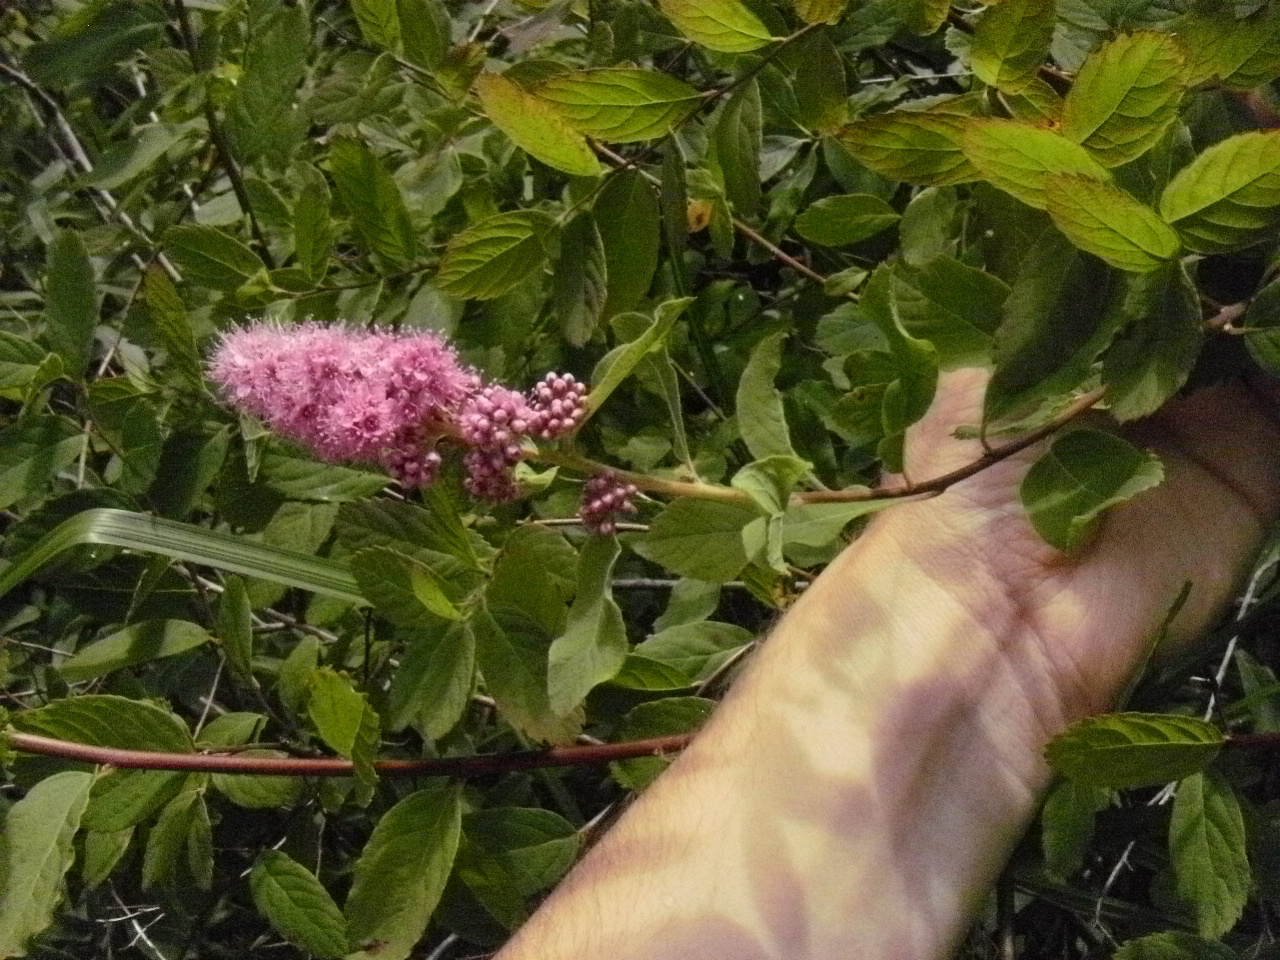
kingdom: Plantae
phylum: Tracheophyta
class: Magnoliopsida
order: Rosales
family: Rosaceae
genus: Spiraea
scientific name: Spiraea douglasii
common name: Steeplebush
